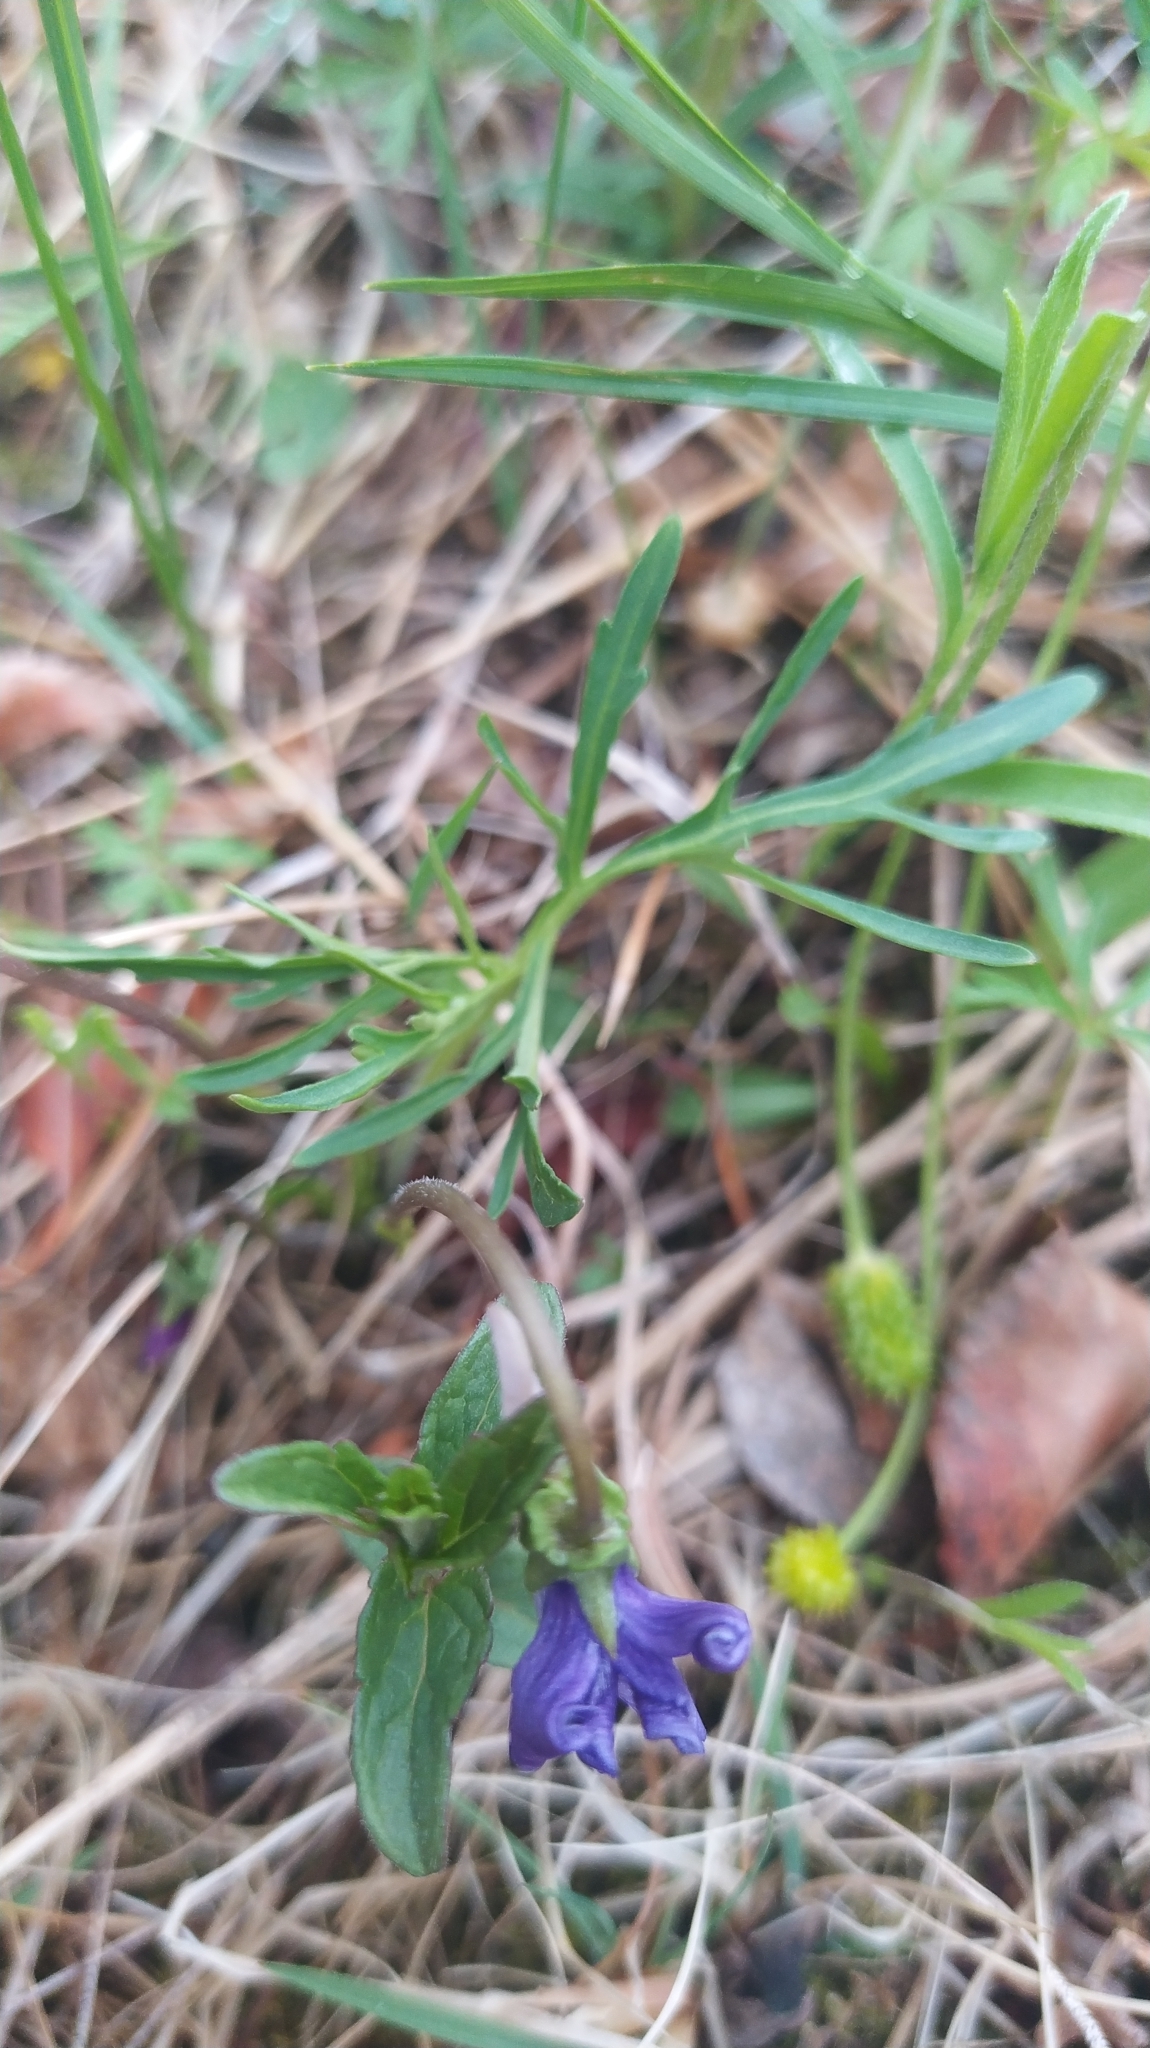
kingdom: Plantae
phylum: Tracheophyta
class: Magnoliopsida
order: Malpighiales
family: Violaceae
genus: Viola
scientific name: Viola multifida
